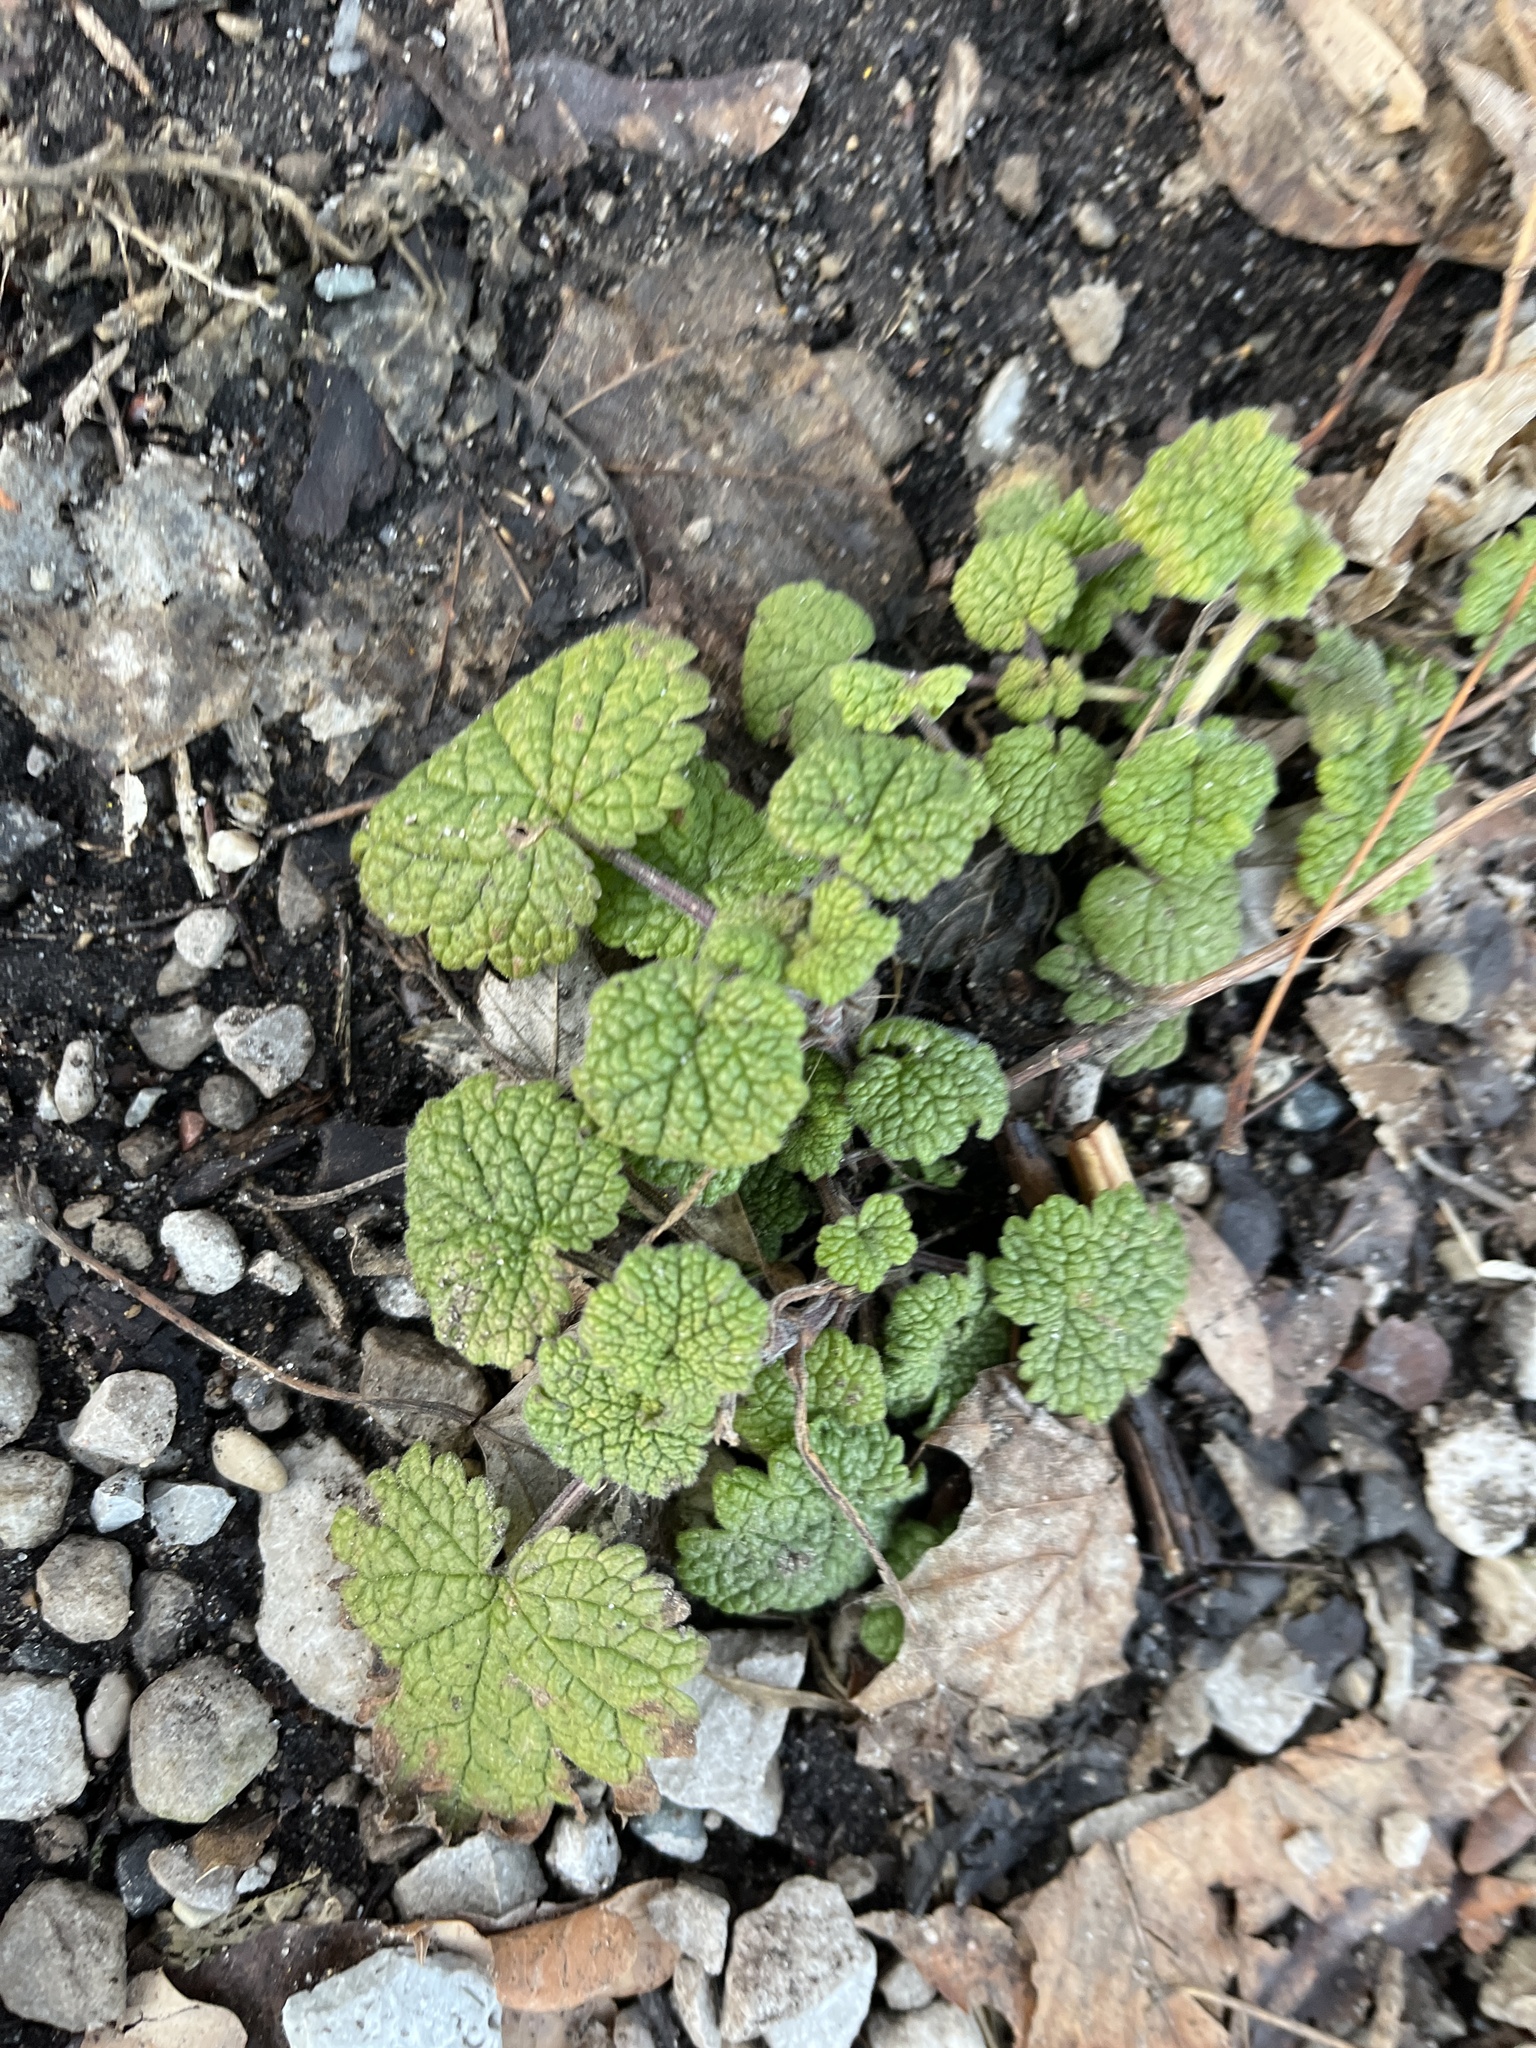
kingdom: Plantae
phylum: Tracheophyta
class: Magnoliopsida
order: Lamiales
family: Lamiaceae
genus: Leonurus
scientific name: Leonurus cardiaca
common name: Motherwort
